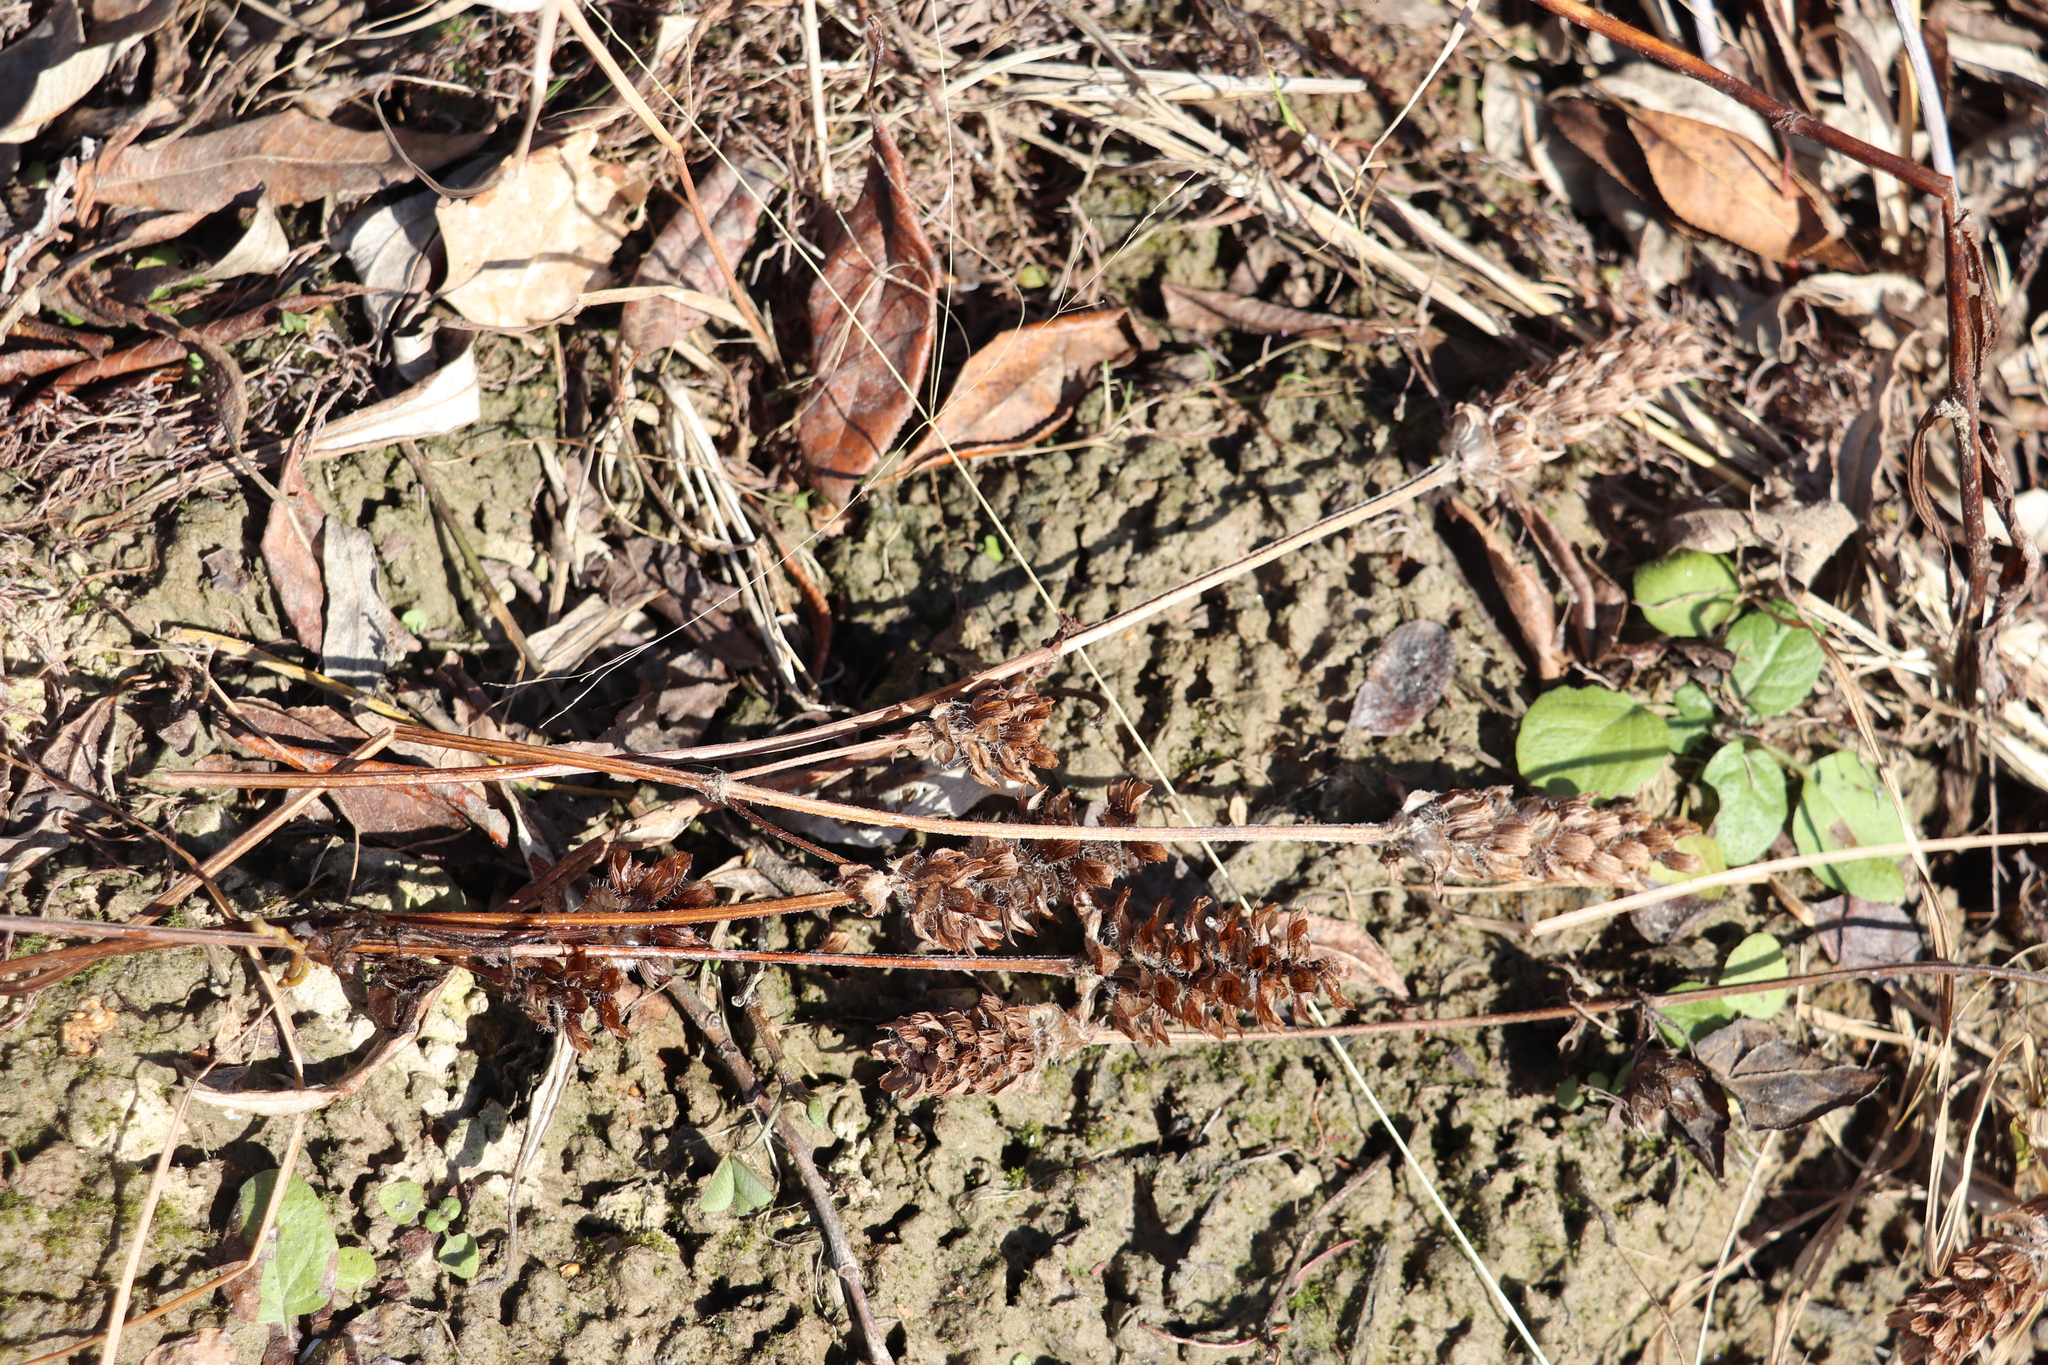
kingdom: Plantae
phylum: Tracheophyta
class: Magnoliopsida
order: Lamiales
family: Lamiaceae
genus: Prunella
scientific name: Prunella vulgaris
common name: Heal-all
